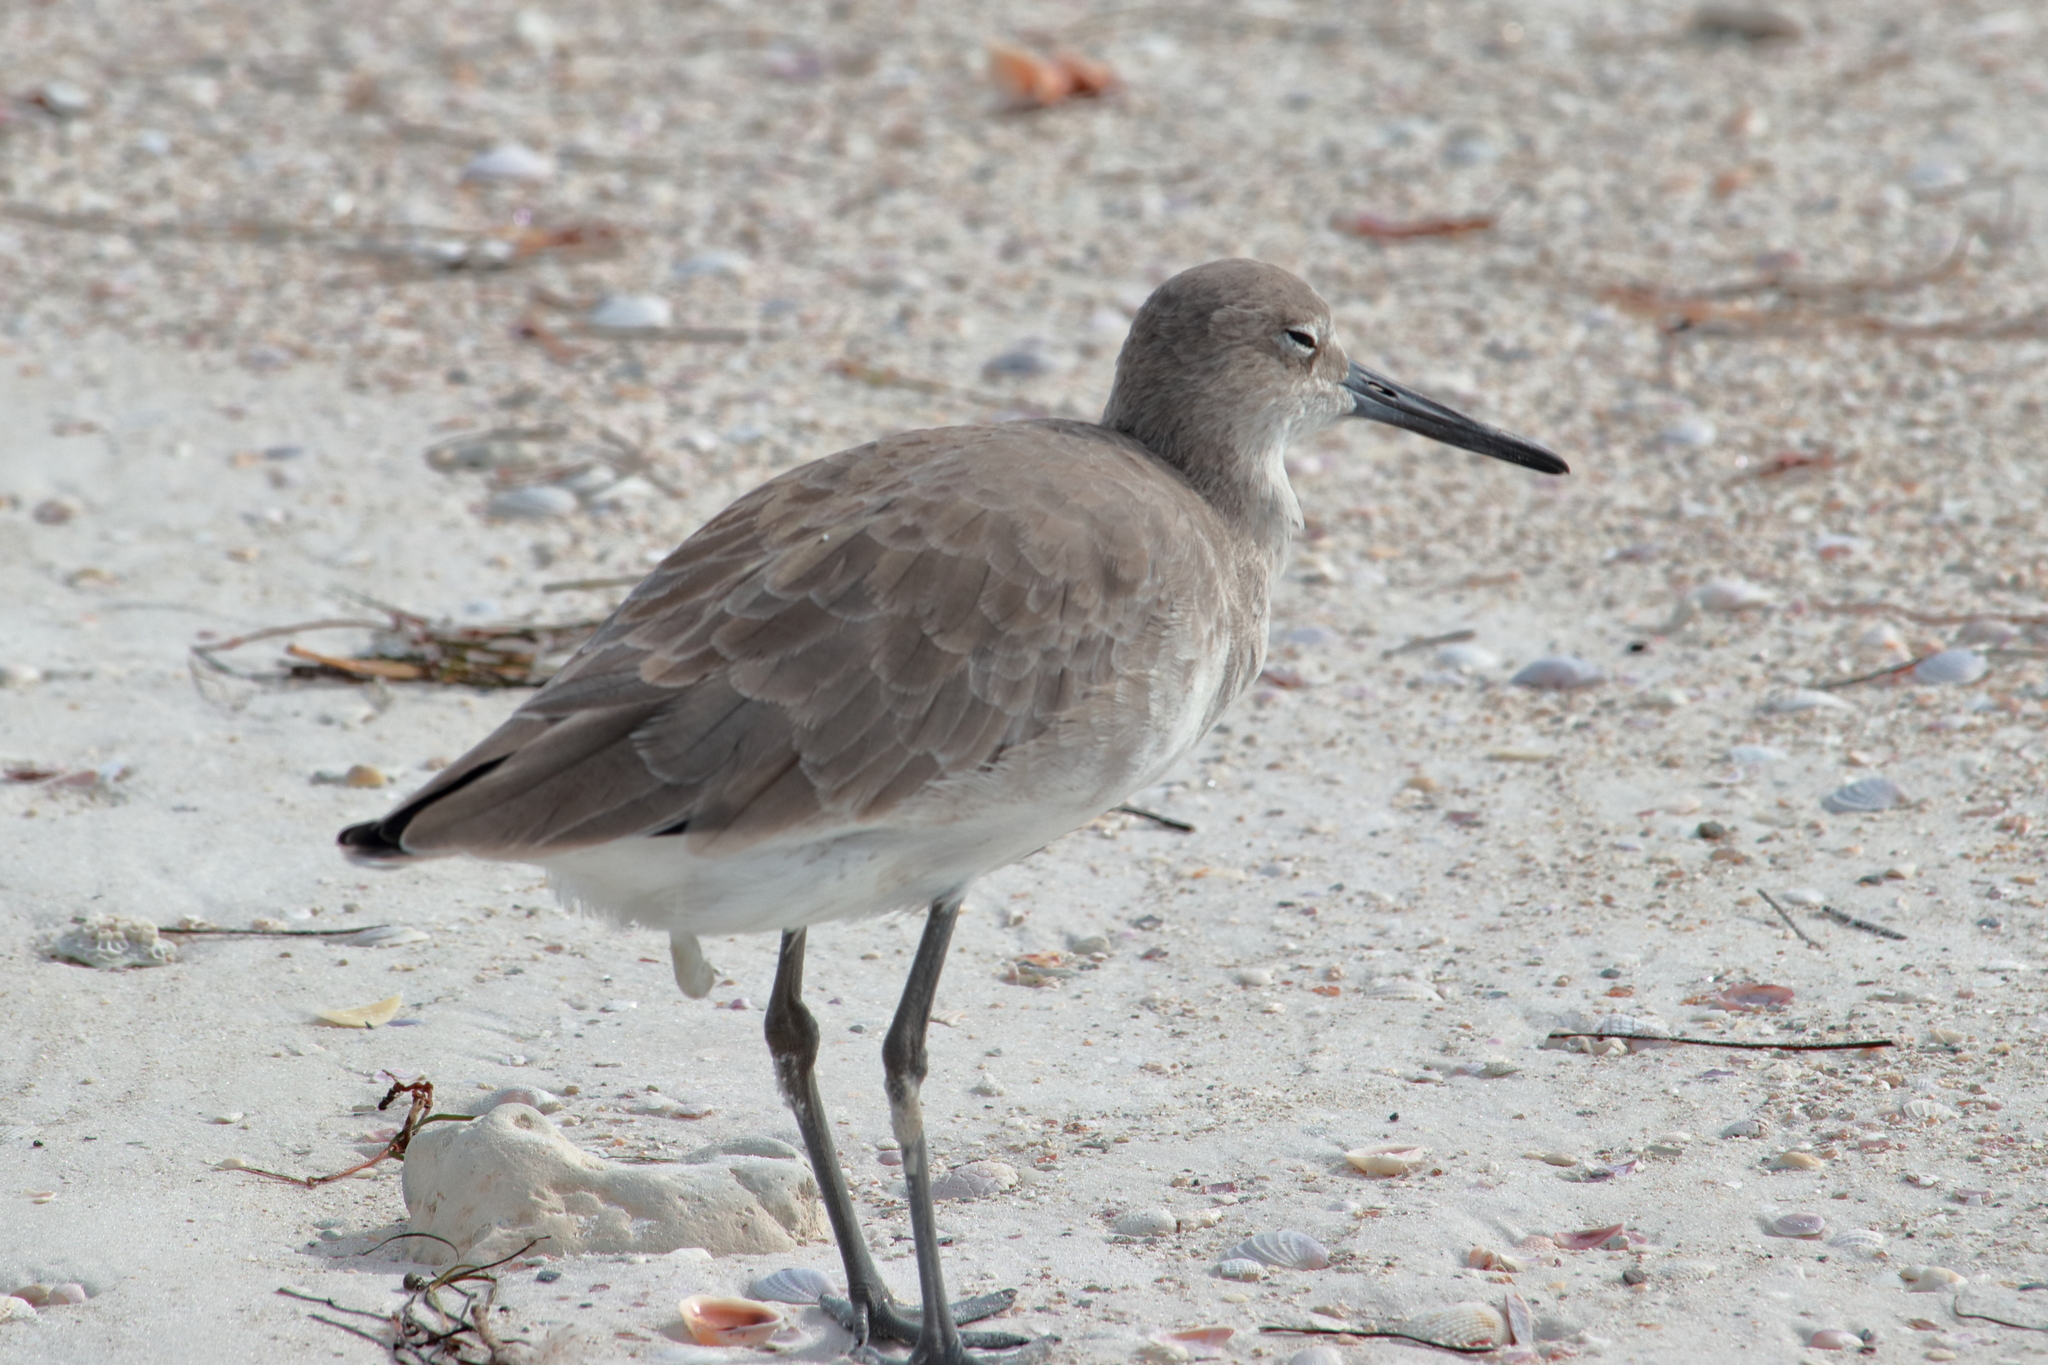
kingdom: Animalia
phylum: Chordata
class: Aves
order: Charadriiformes
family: Scolopacidae
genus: Tringa
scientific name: Tringa semipalmata
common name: Willet
